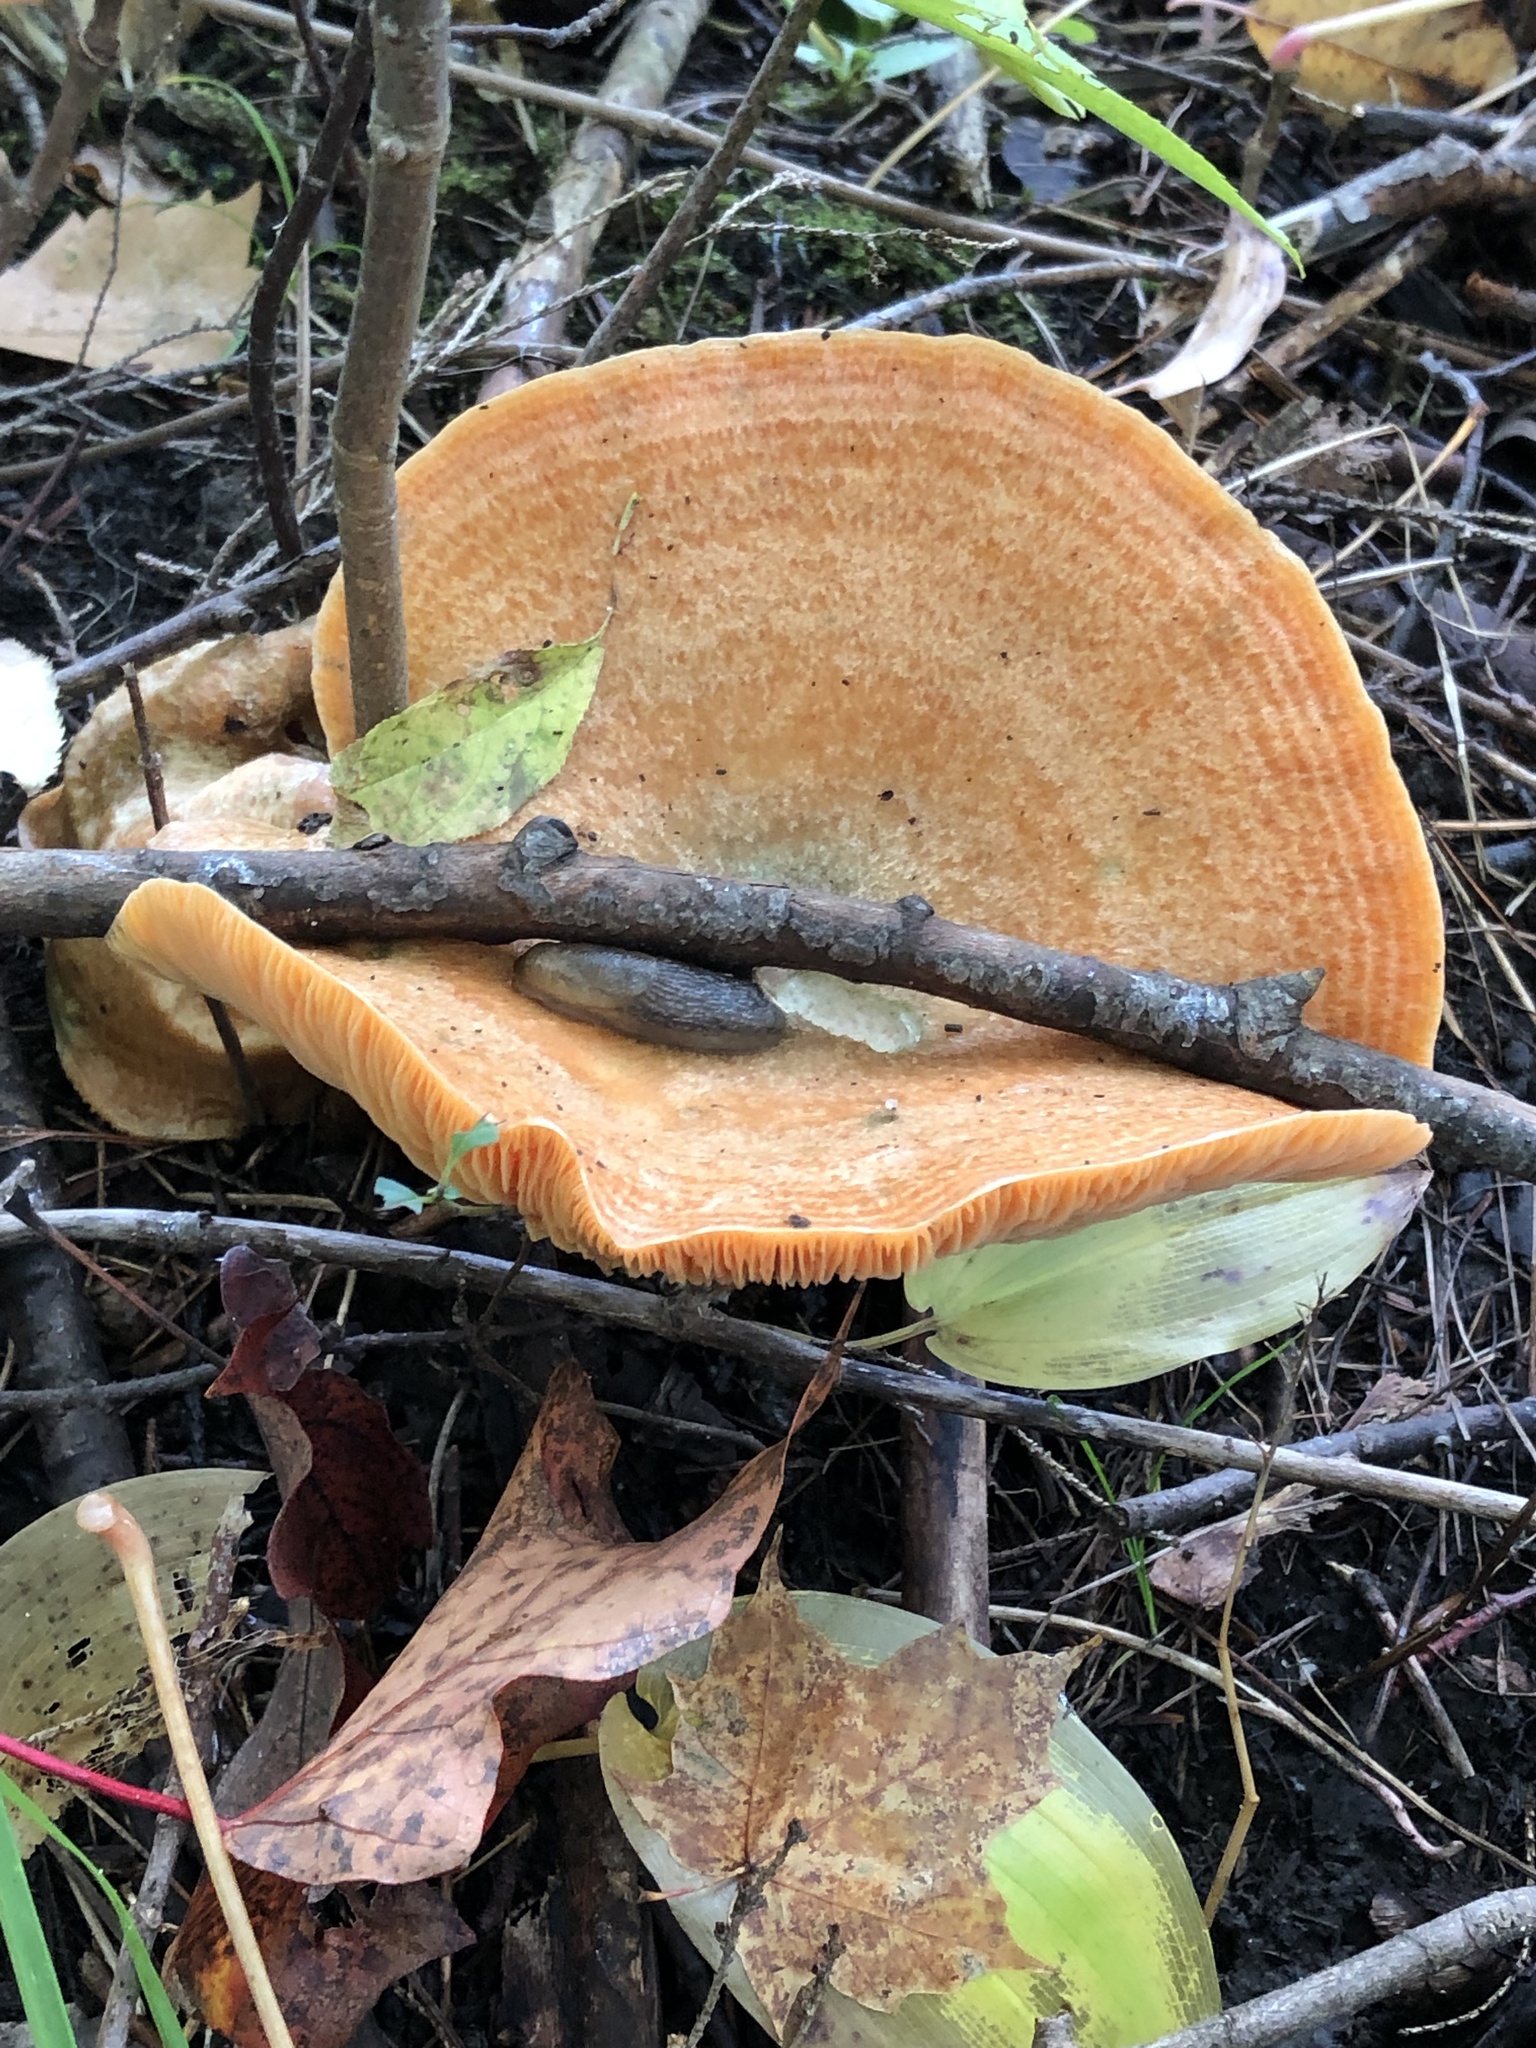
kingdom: Fungi
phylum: Basidiomycota
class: Agaricomycetes
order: Russulales
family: Russulaceae
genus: Lactarius
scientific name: Lactarius deterrimus
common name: False saffron milkcap
